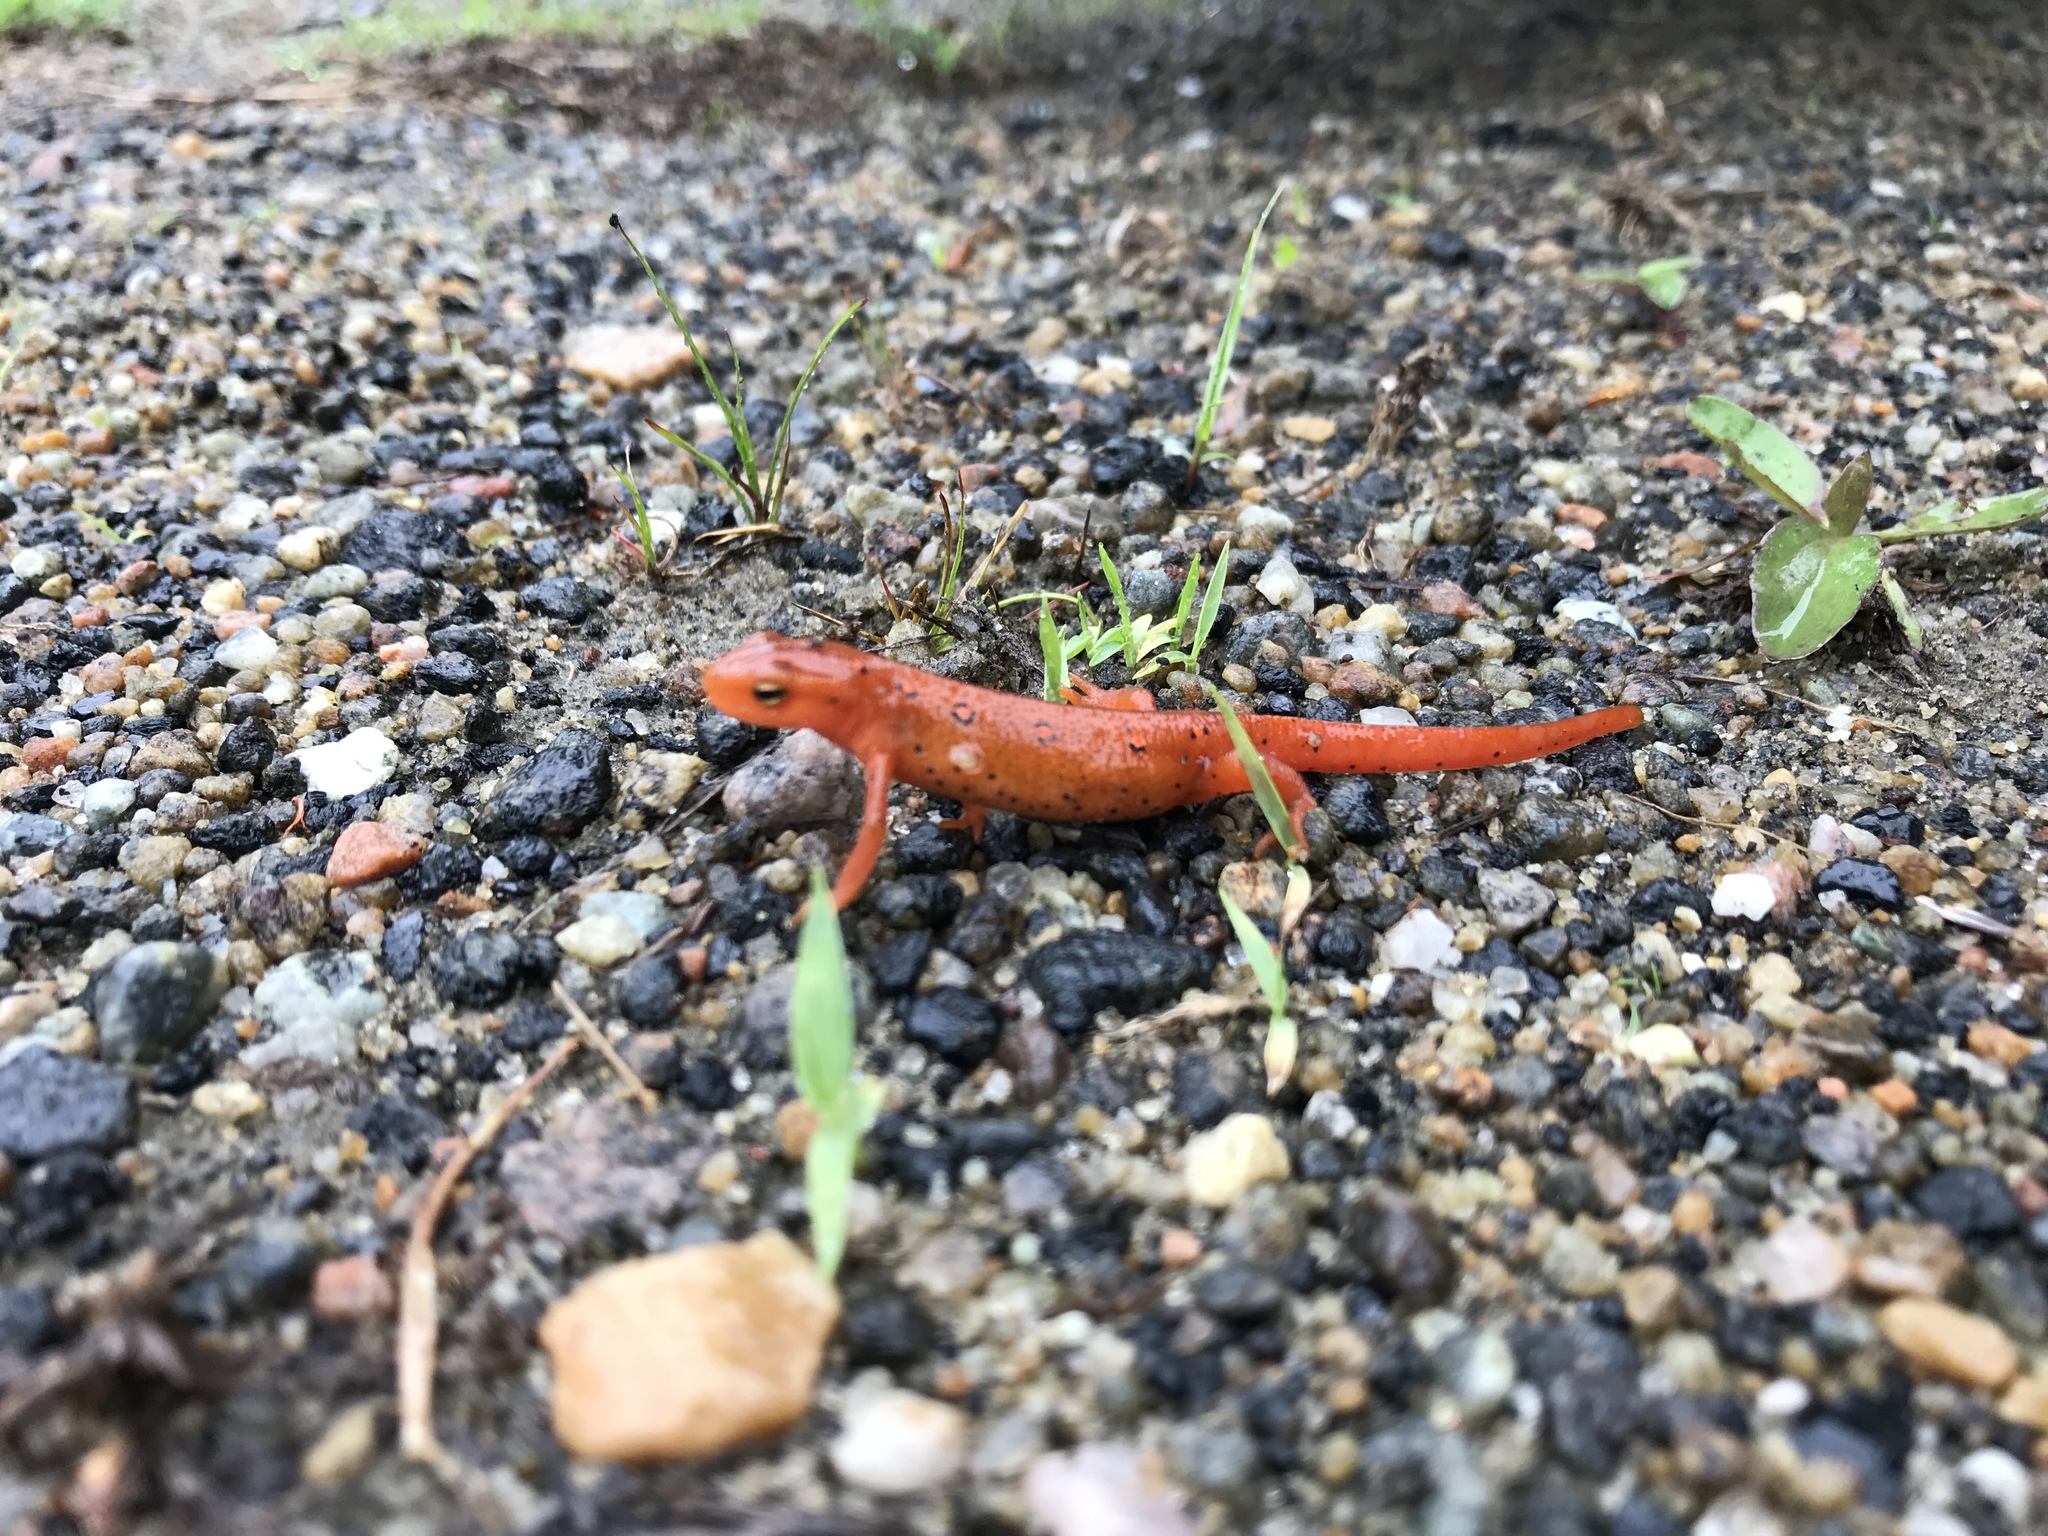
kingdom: Animalia
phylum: Chordata
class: Amphibia
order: Caudata
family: Salamandridae
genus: Notophthalmus
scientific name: Notophthalmus viridescens
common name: Eastern newt
